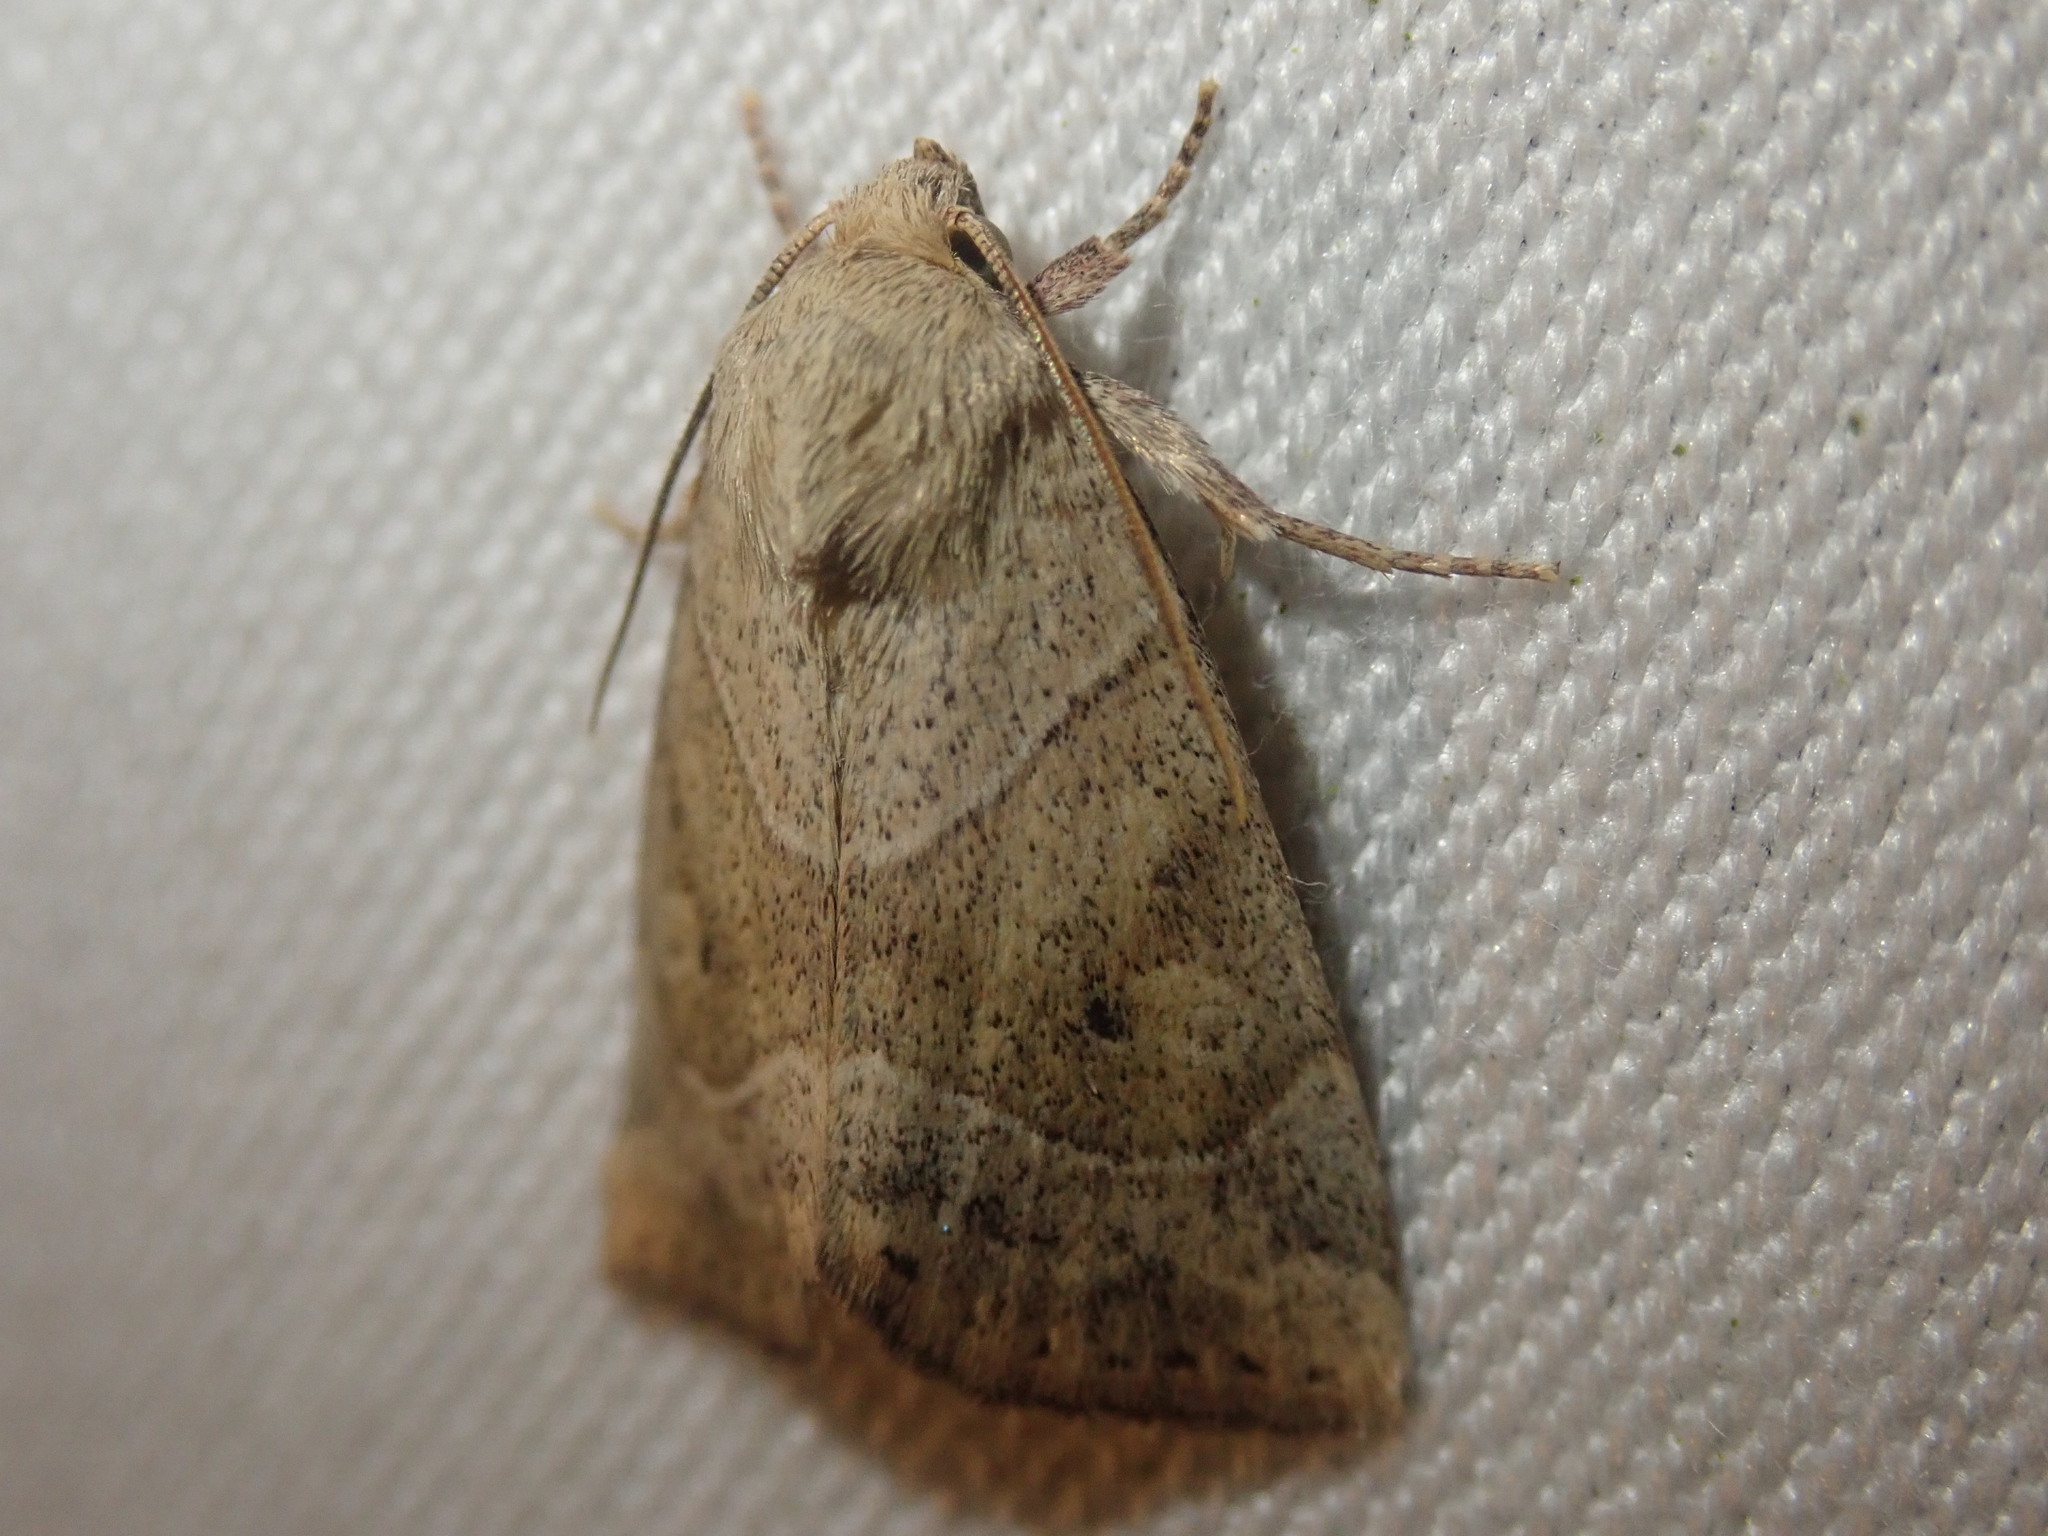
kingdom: Animalia
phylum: Arthropoda
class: Insecta
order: Lepidoptera
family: Noctuidae
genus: Cosmia
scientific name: Cosmia trapezina
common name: Dun-bar
